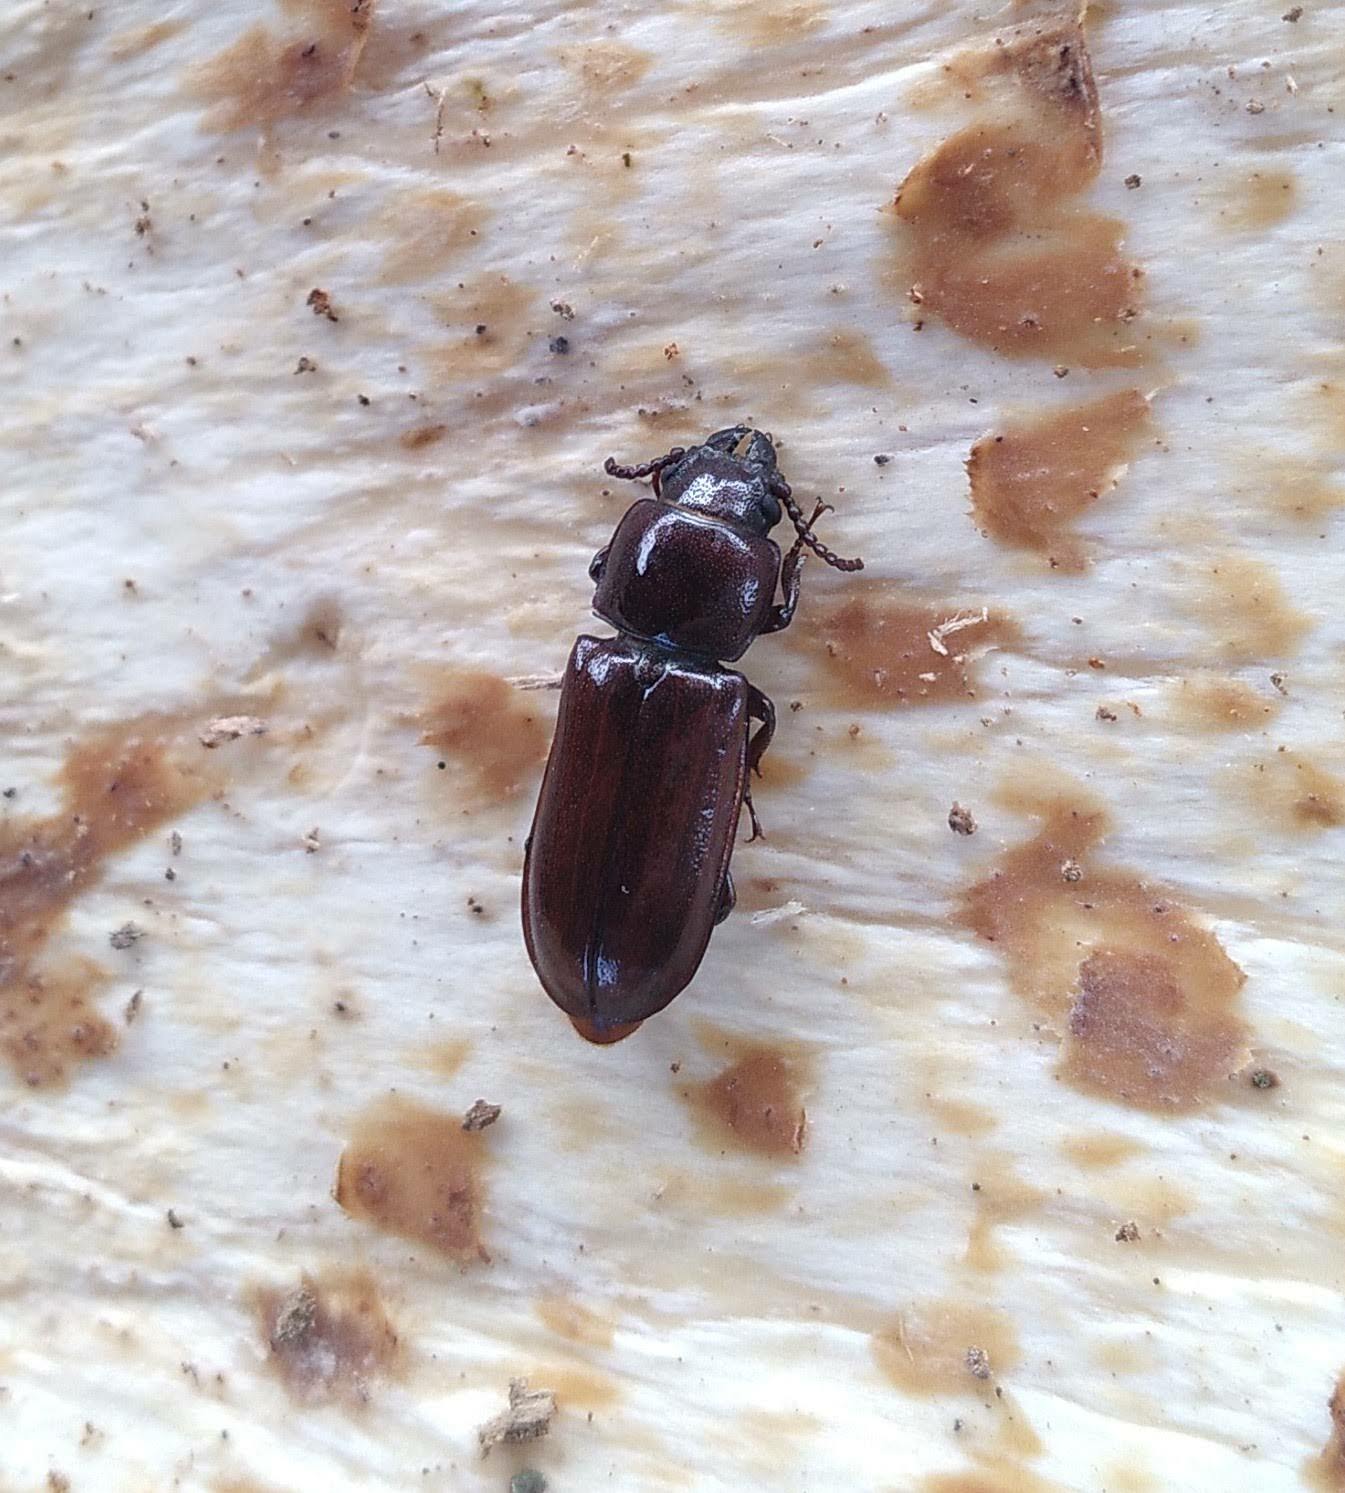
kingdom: Animalia
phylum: Arthropoda
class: Insecta
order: Coleoptera
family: Cerambycidae
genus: Neandra
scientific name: Neandra brunnea
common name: Pole borer
